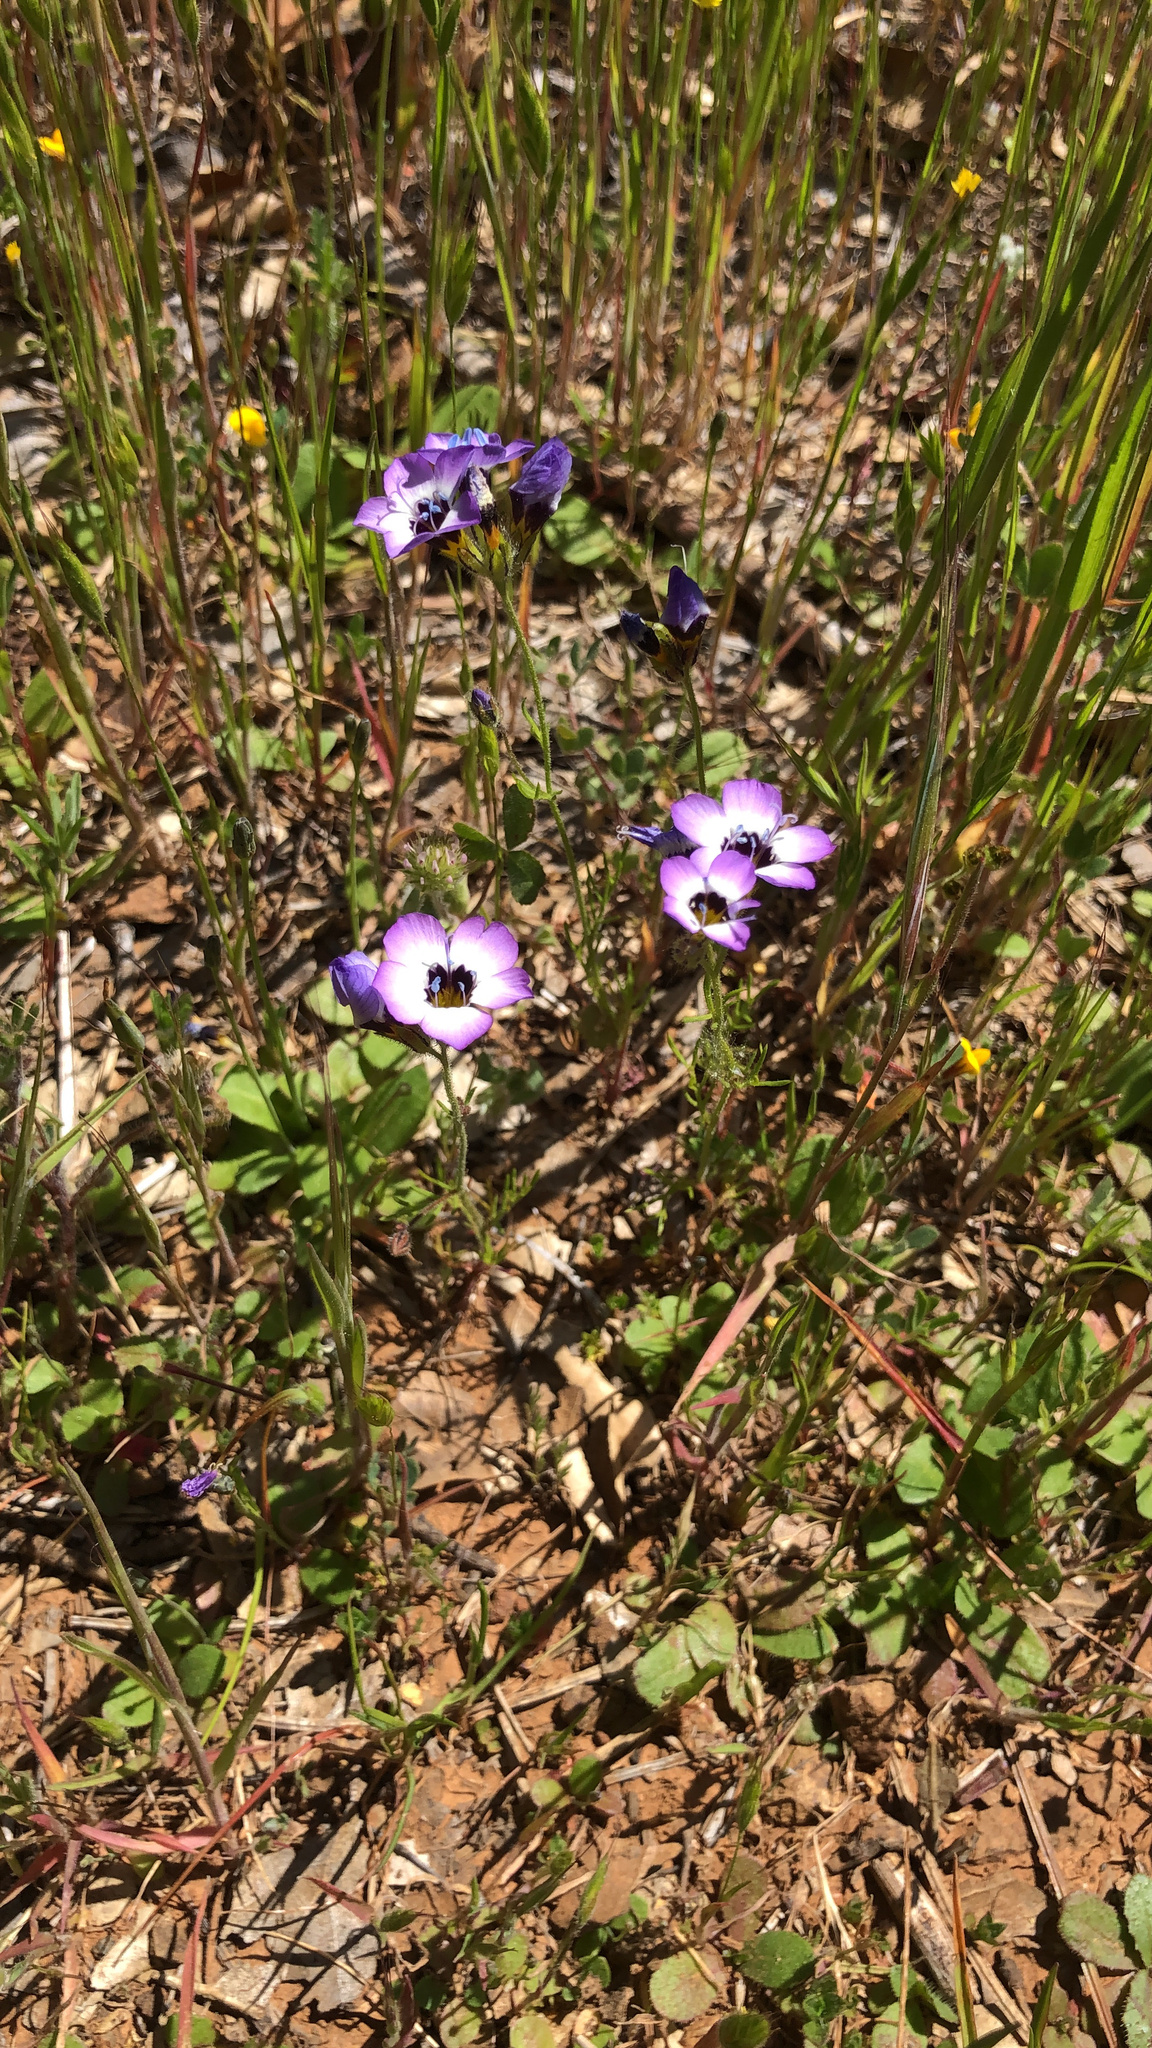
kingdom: Plantae
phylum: Tracheophyta
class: Magnoliopsida
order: Ericales
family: Polemoniaceae
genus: Gilia
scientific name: Gilia tricolor
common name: Bird's-eyes
